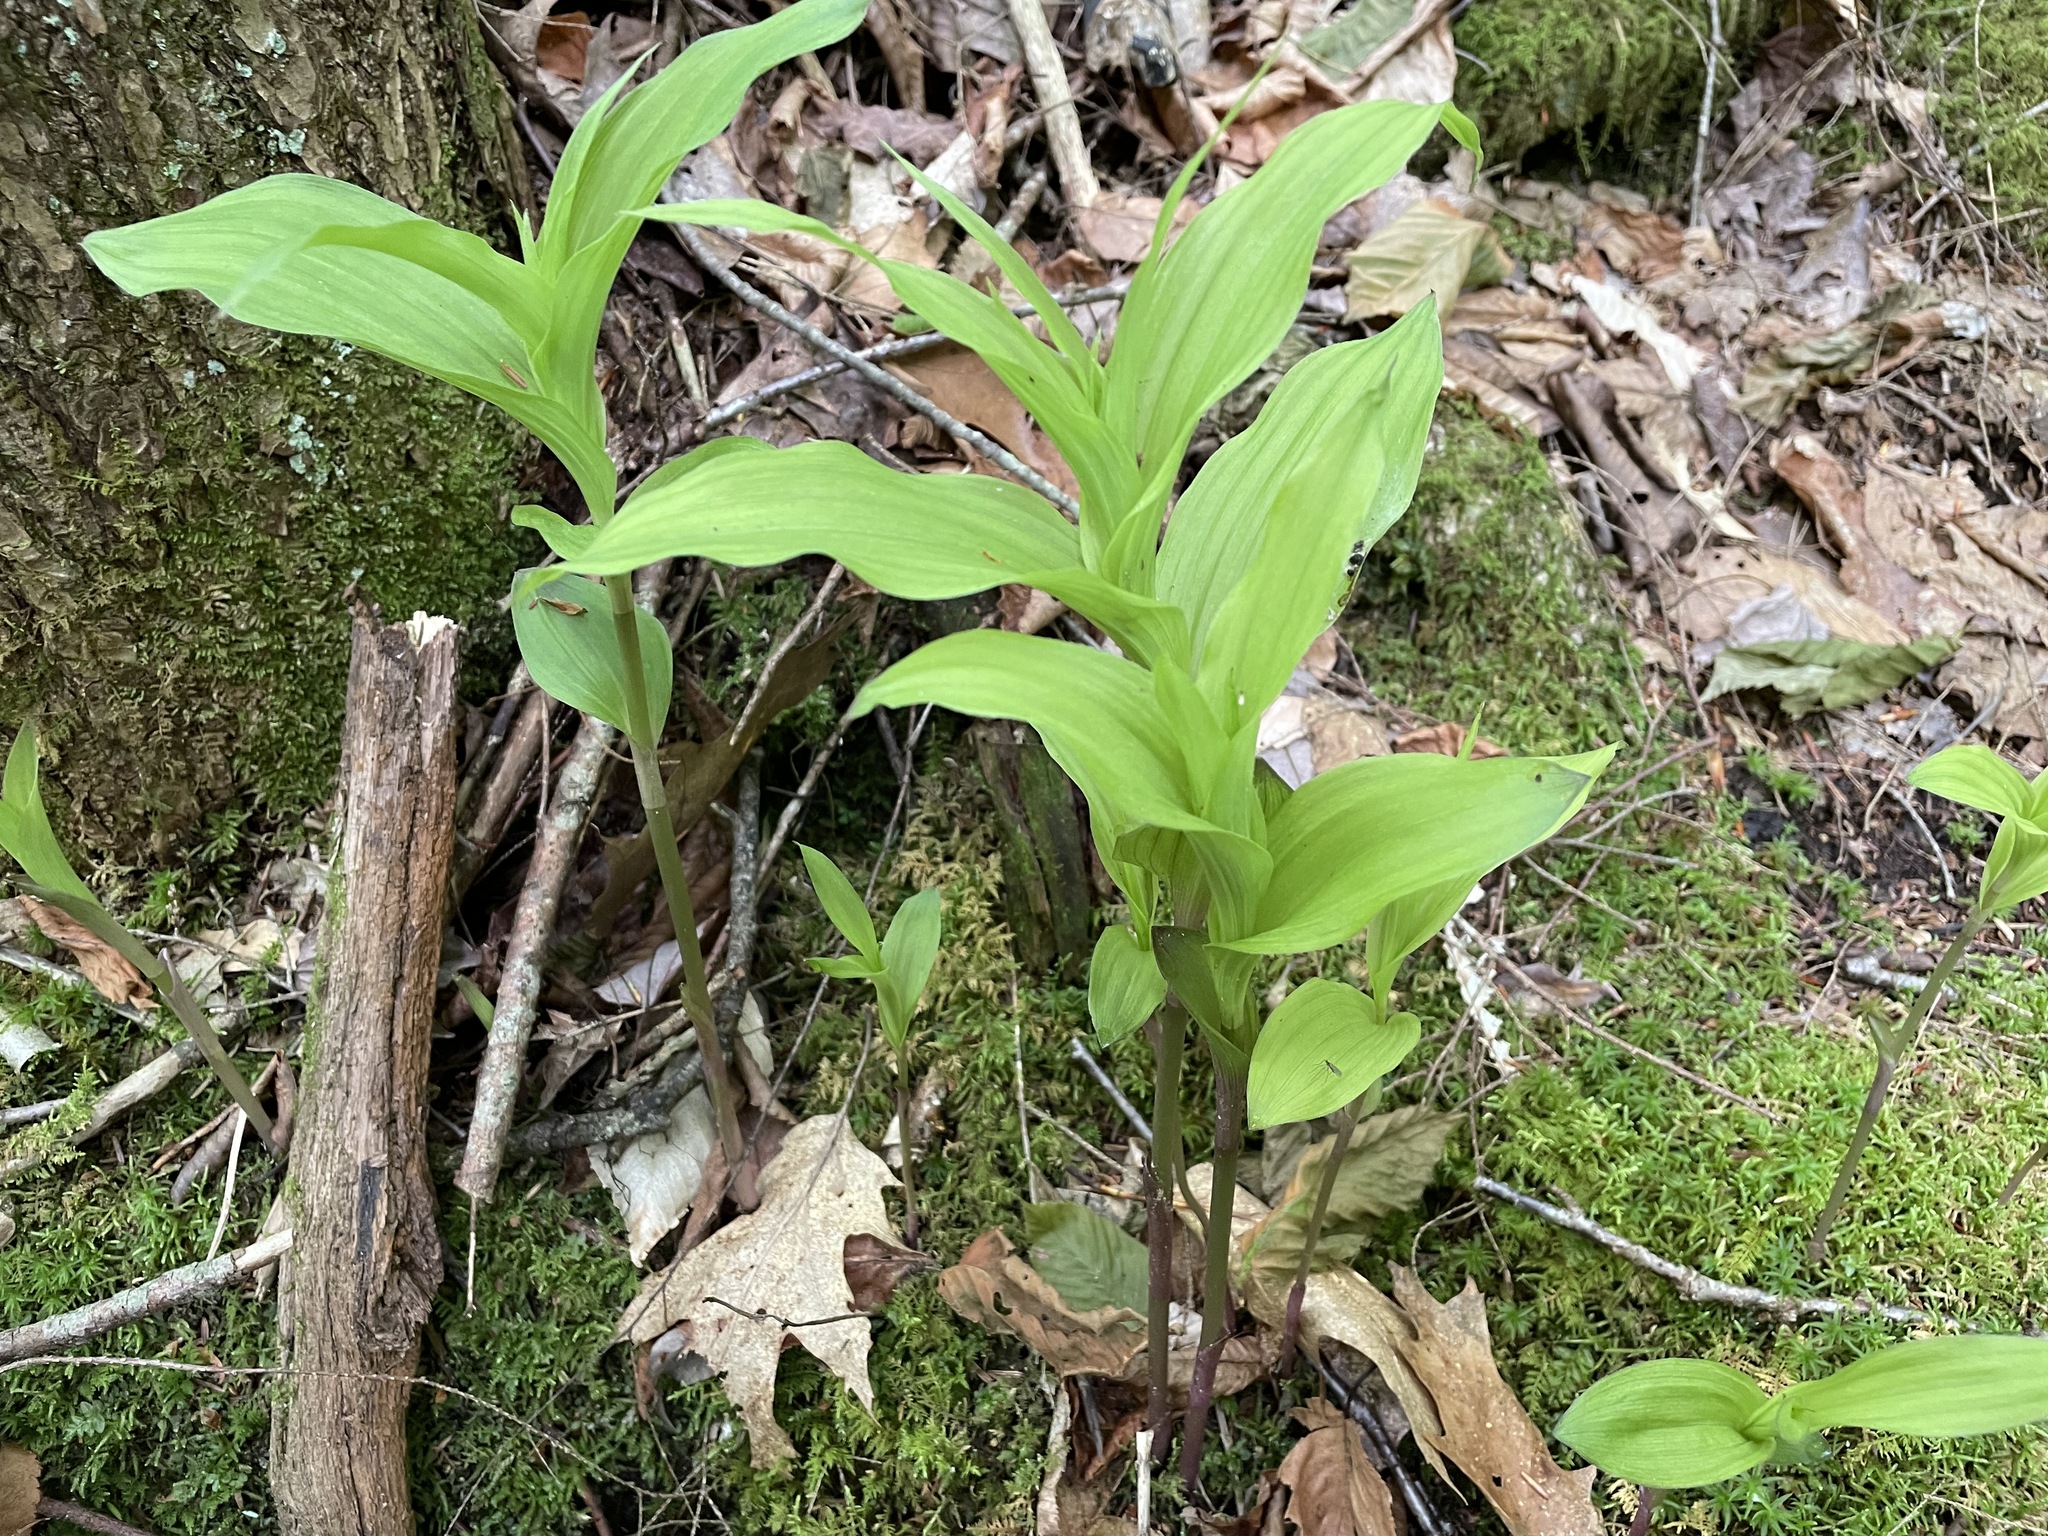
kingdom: Plantae
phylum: Tracheophyta
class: Liliopsida
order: Asparagales
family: Orchidaceae
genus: Epipactis
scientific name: Epipactis helleborine
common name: Broad-leaved helleborine
